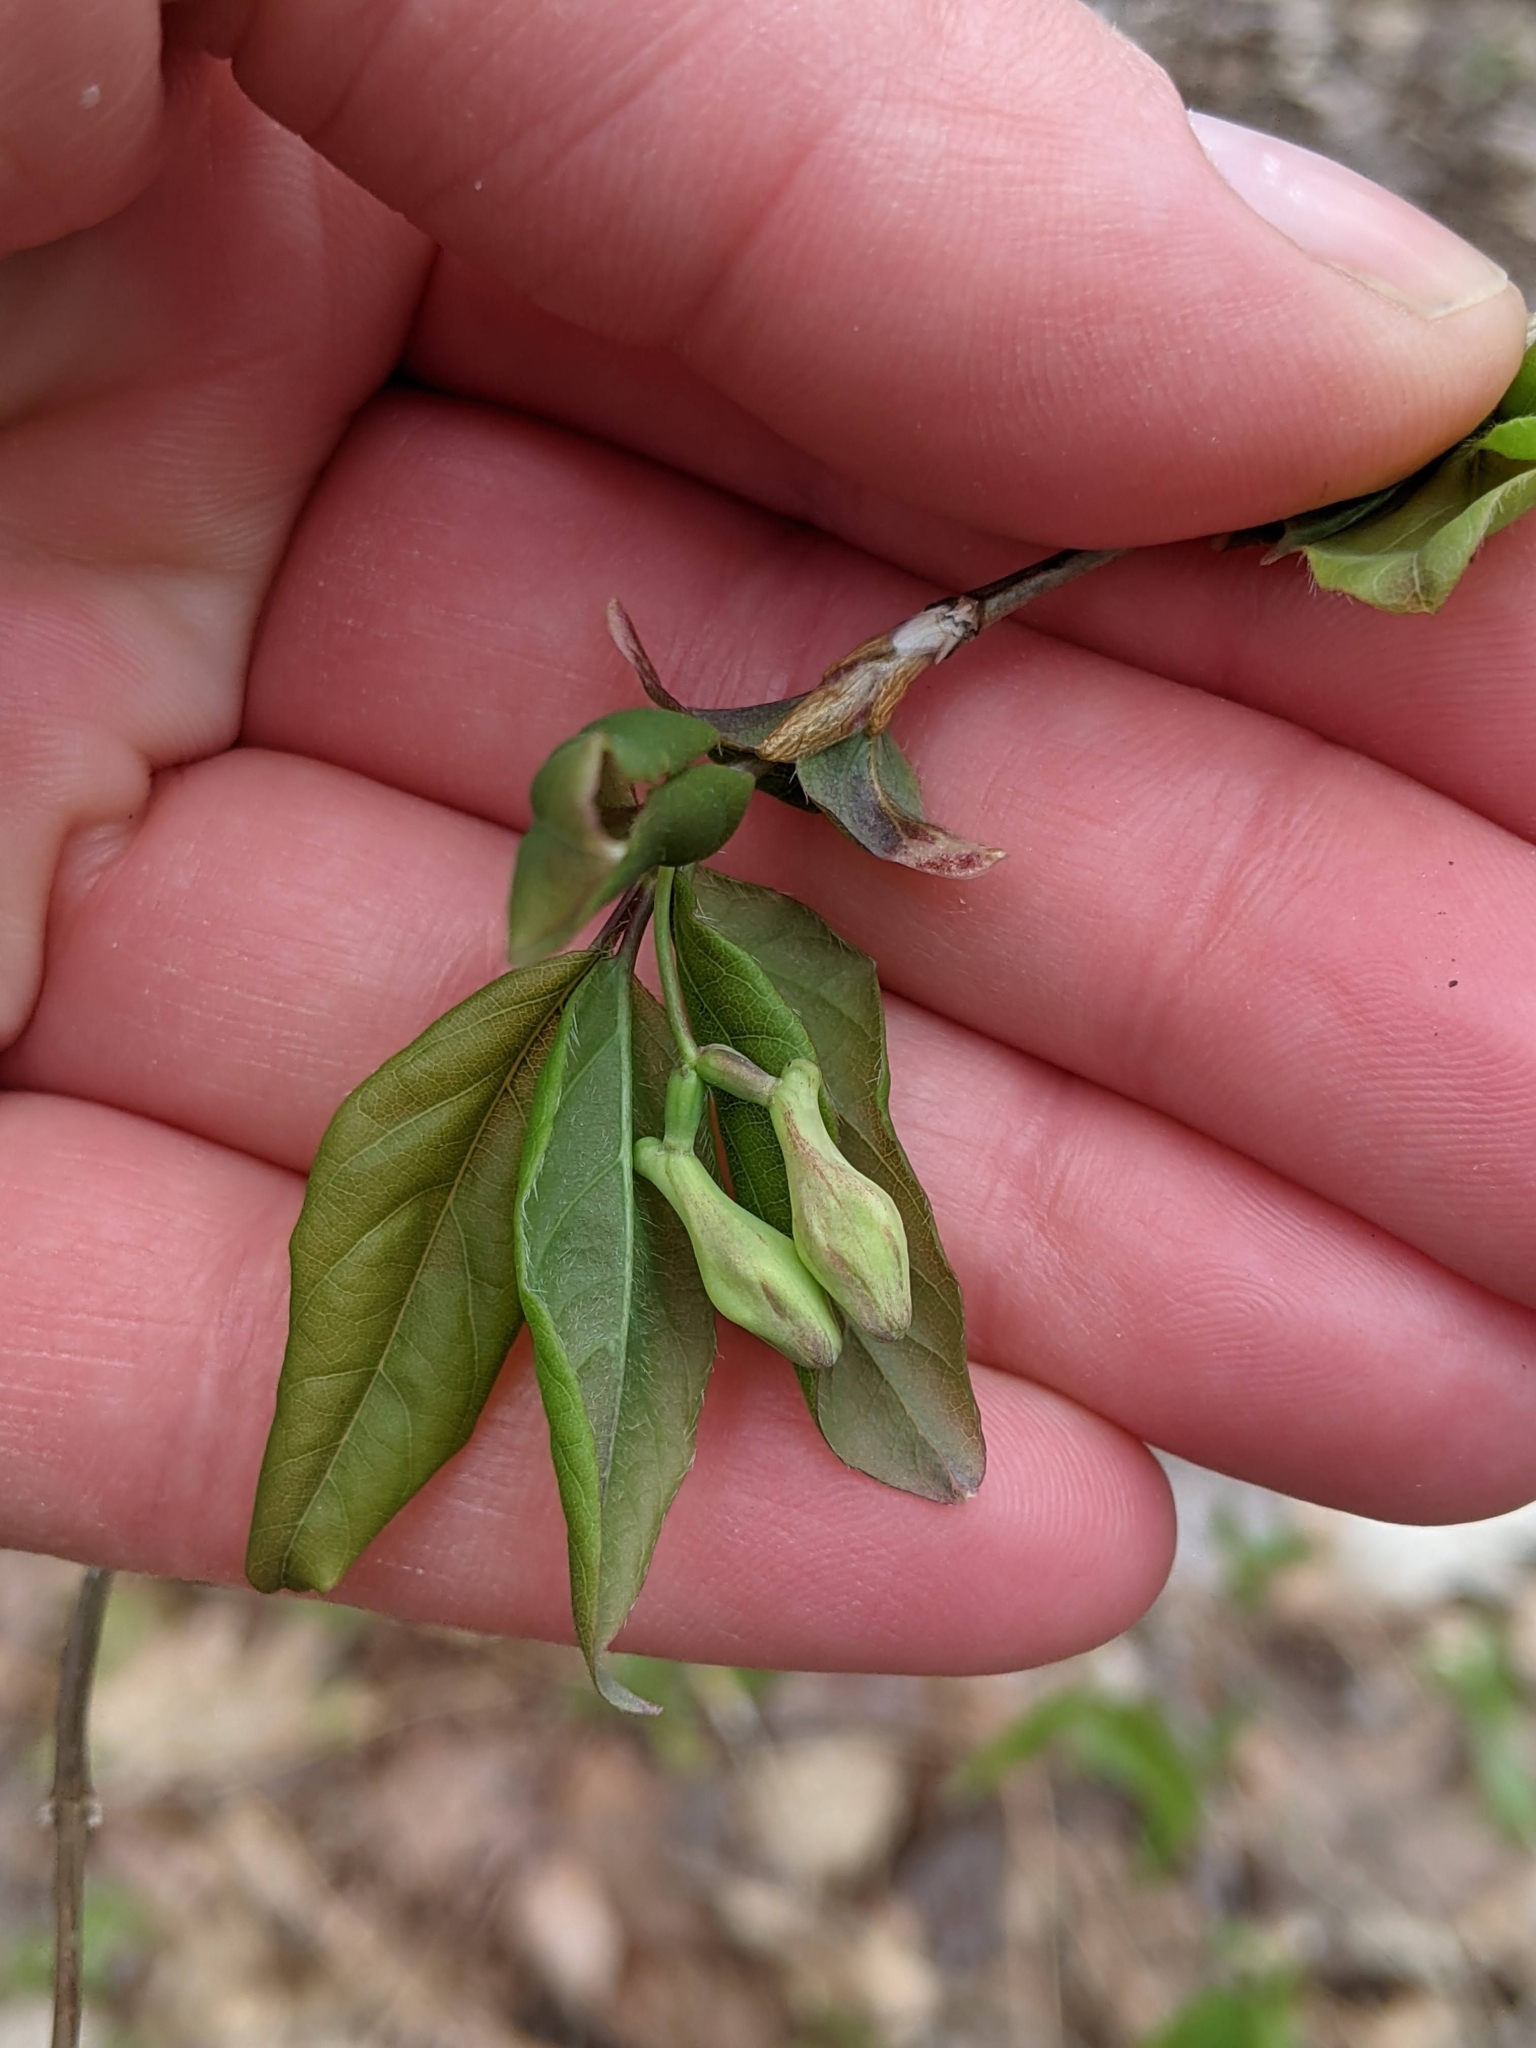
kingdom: Plantae
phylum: Tracheophyta
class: Magnoliopsida
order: Dipsacales
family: Caprifoliaceae
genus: Lonicera
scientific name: Lonicera canadensis
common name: American fly-honeysuckle
